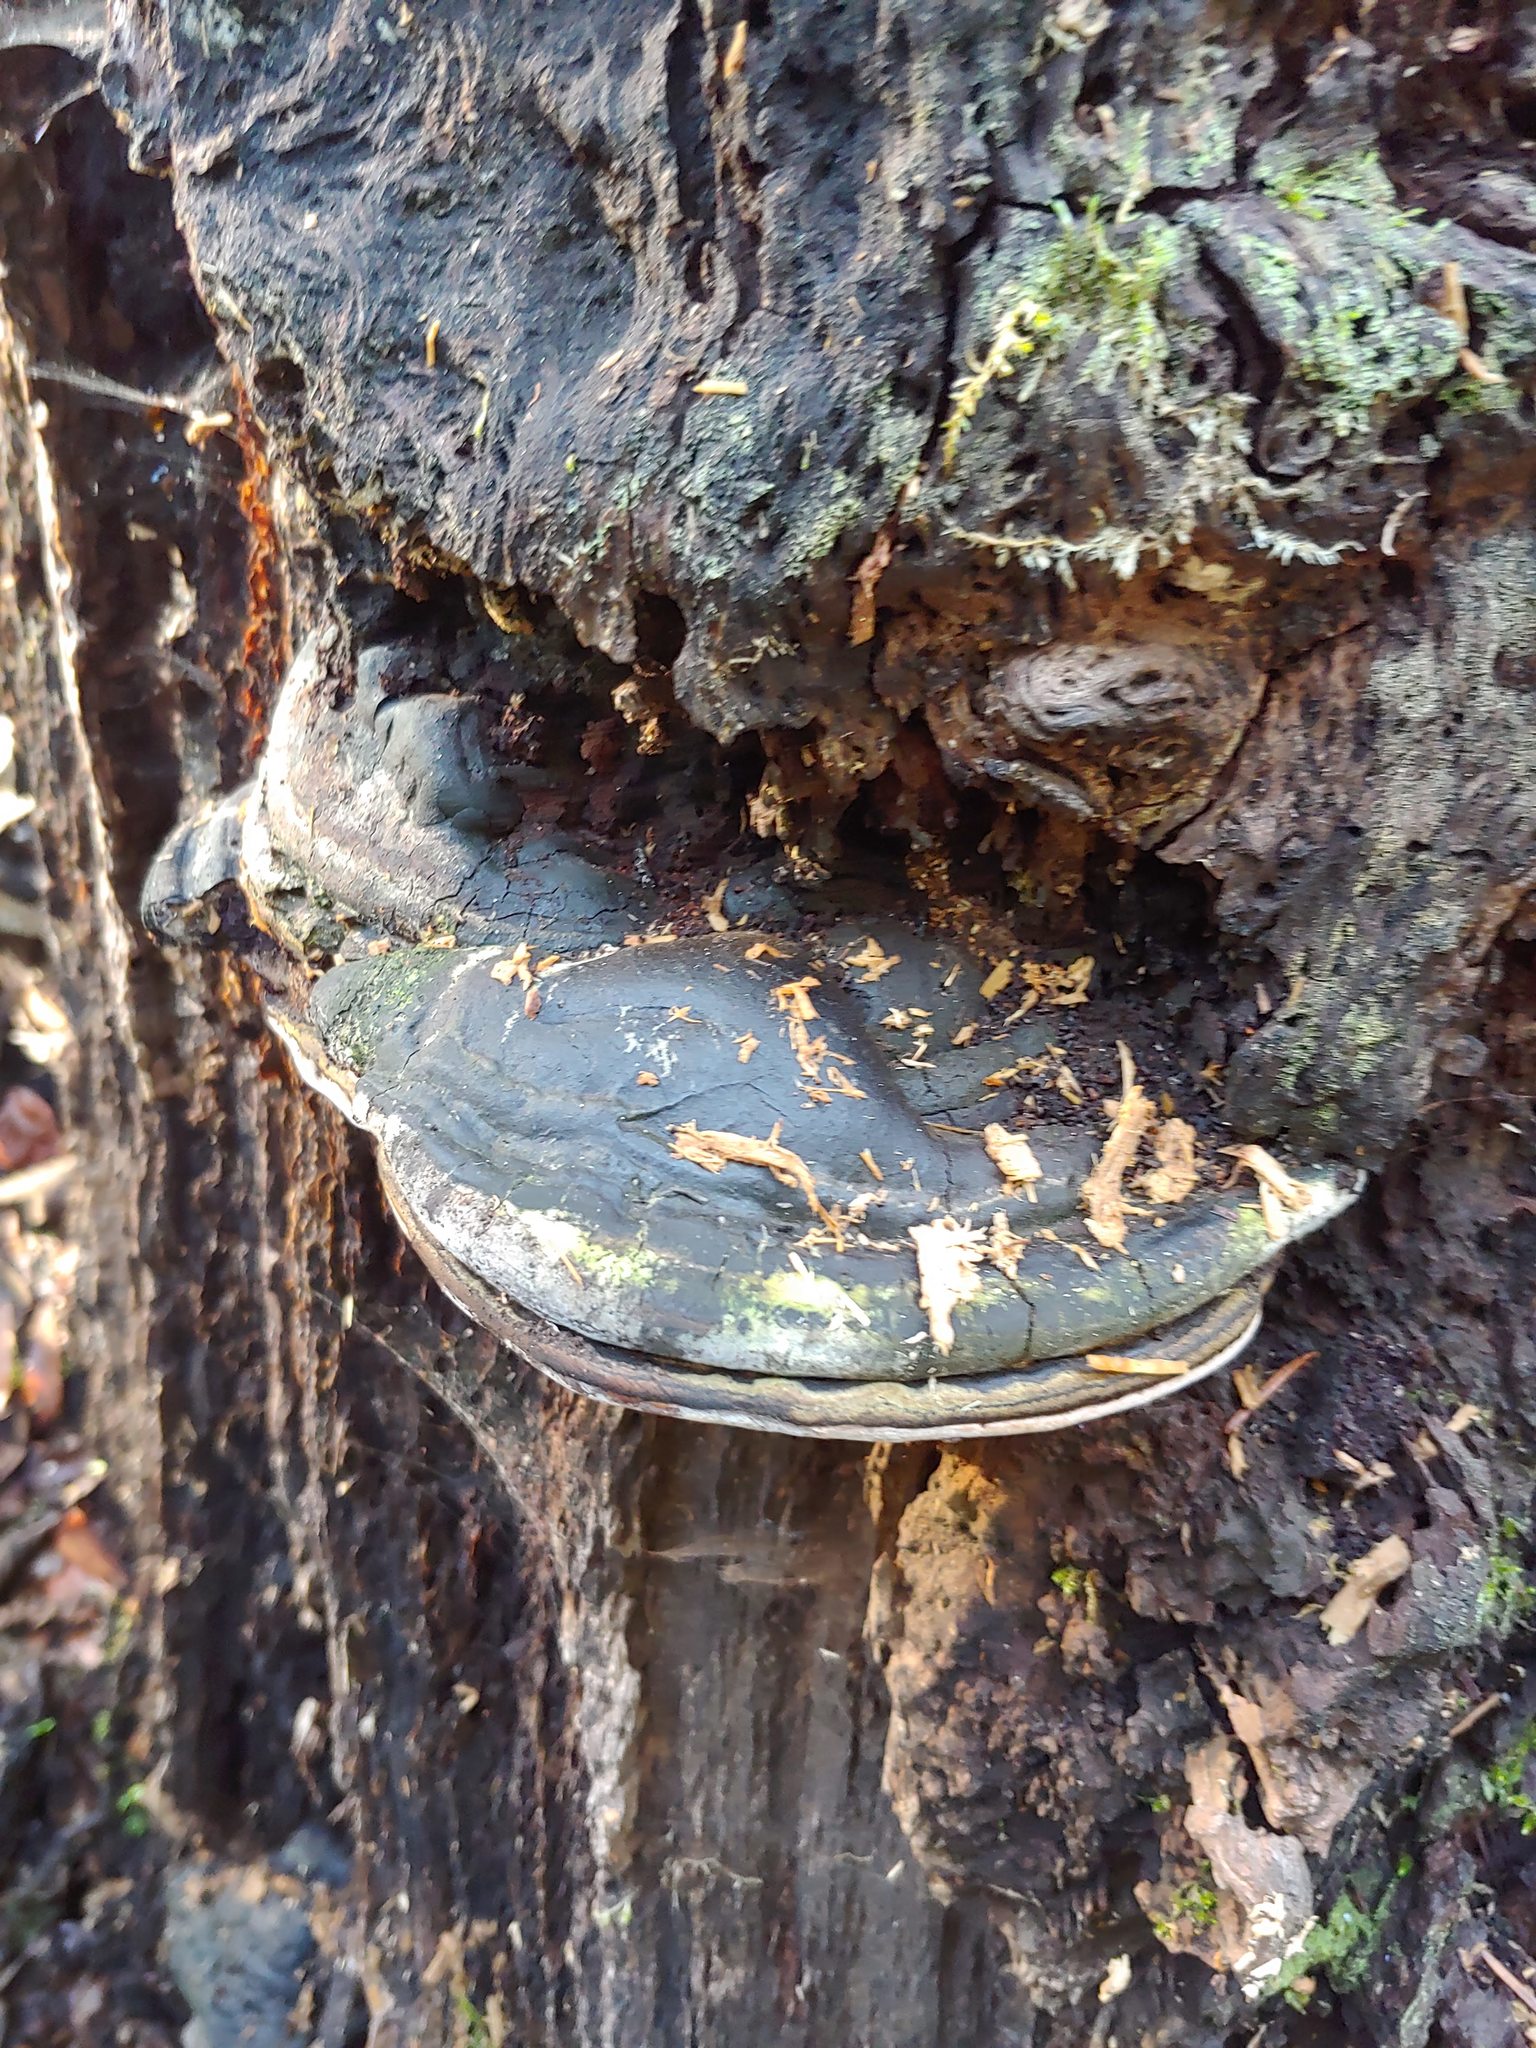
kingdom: Fungi
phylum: Basidiomycota
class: Agaricomycetes
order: Polyporales
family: Polyporaceae
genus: Ganoderma
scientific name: Ganoderma brownii
